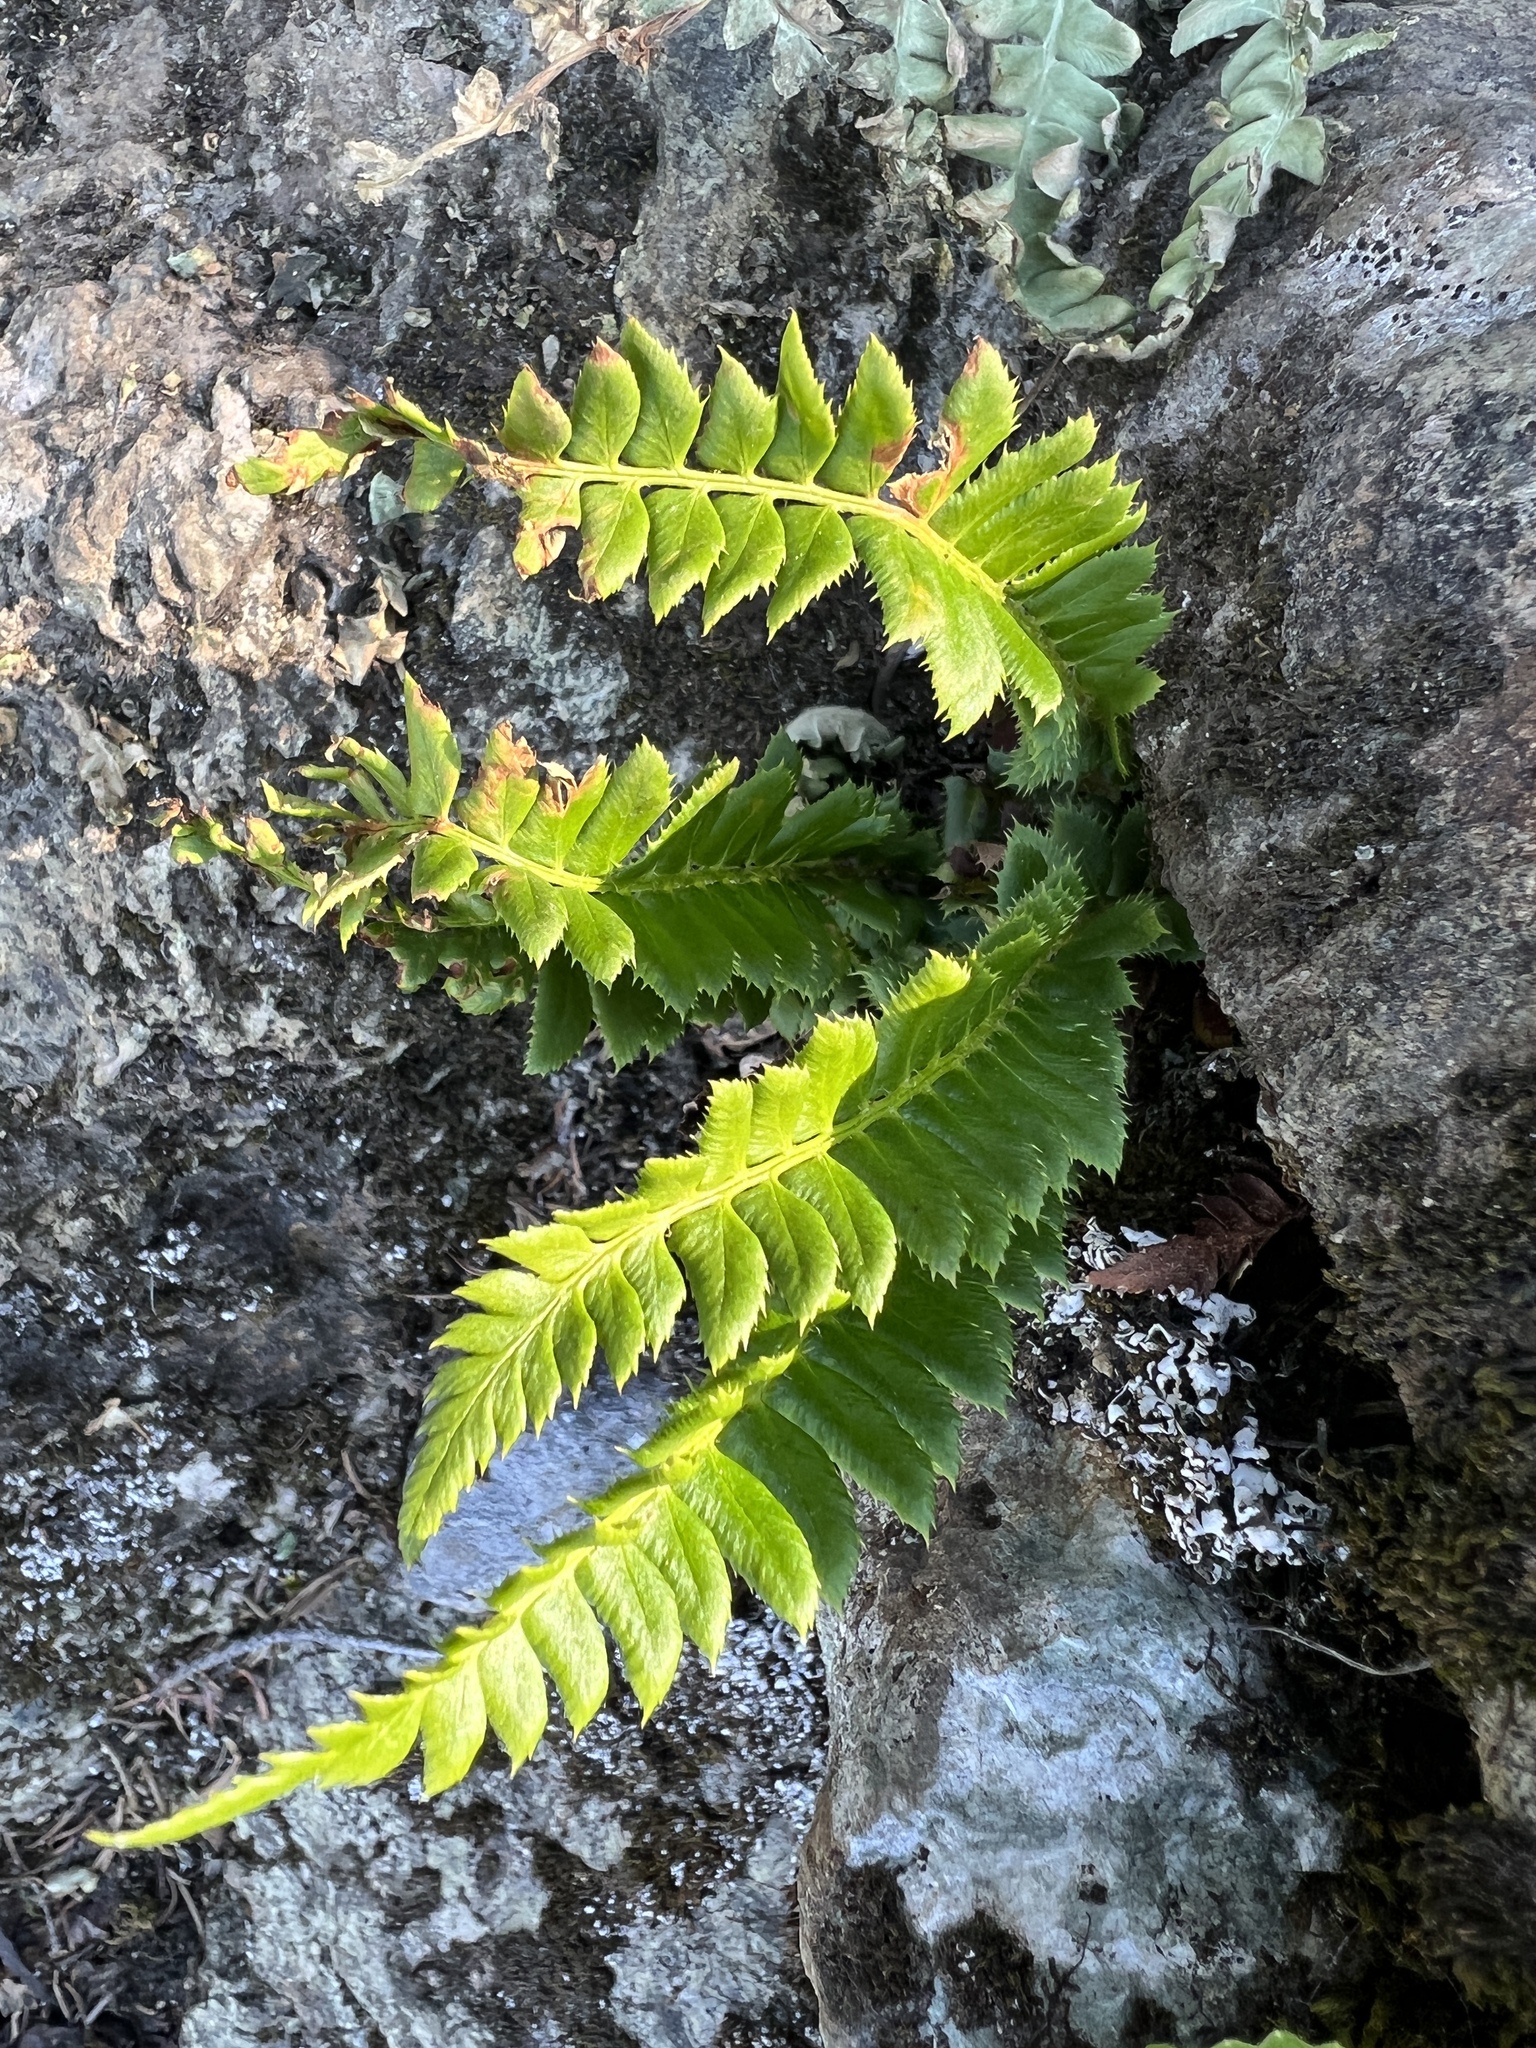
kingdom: Plantae
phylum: Tracheophyta
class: Polypodiopsida
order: Polypodiales
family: Dryopteridaceae
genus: Polystichum
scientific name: Polystichum lonchitis
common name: Holly fern
